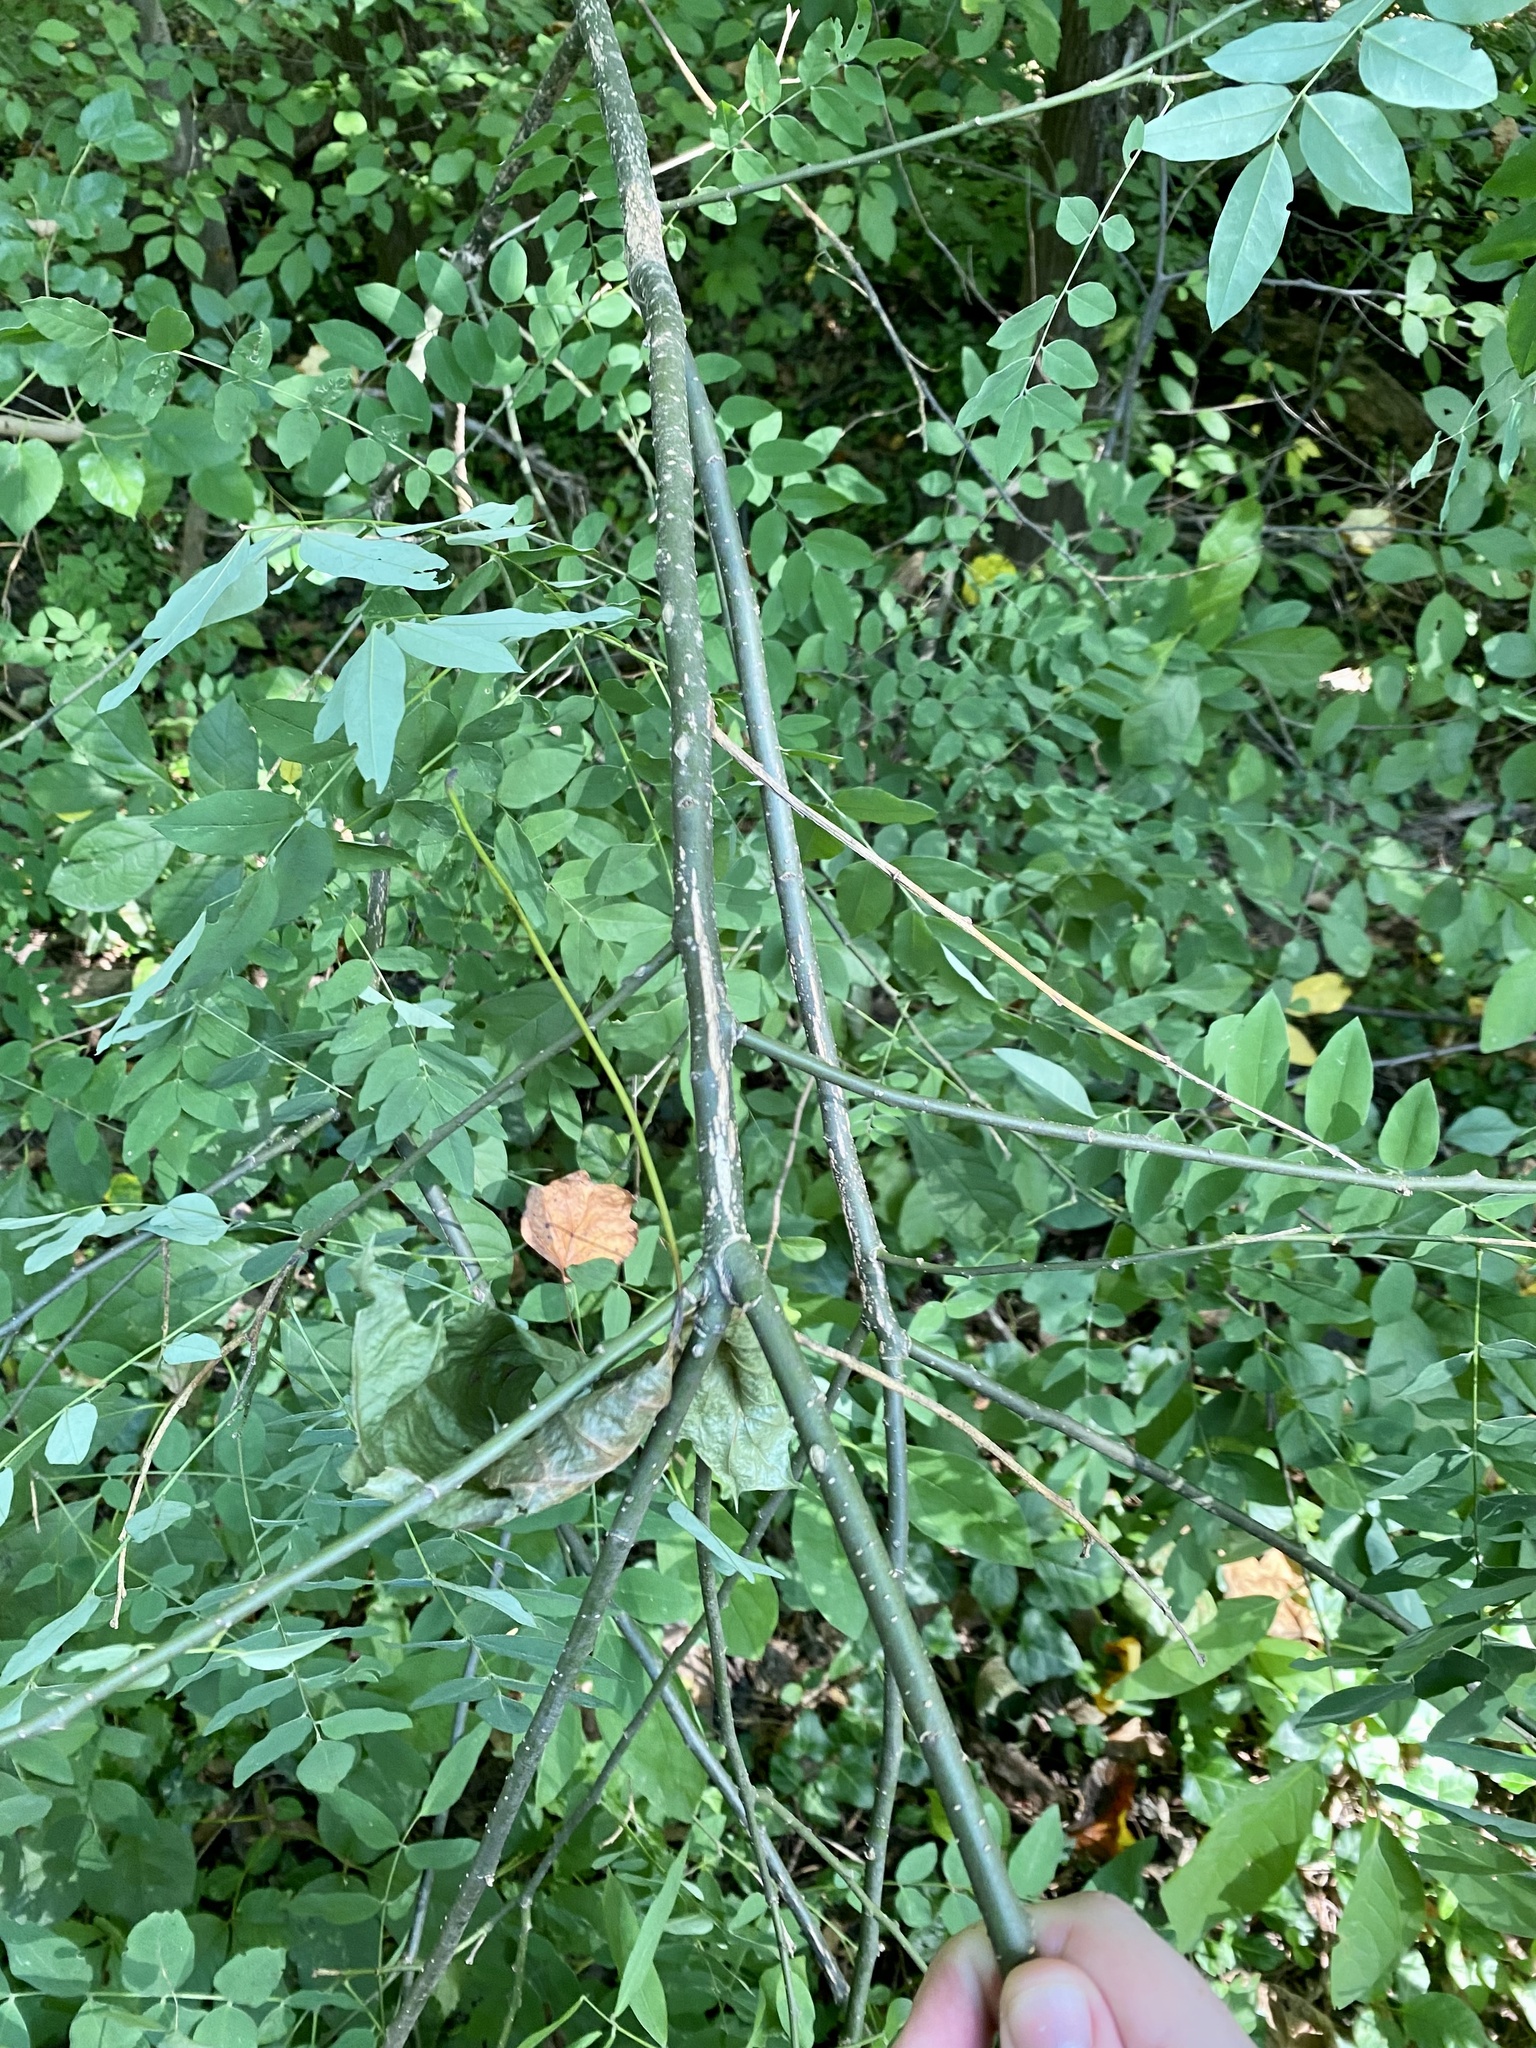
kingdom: Plantae
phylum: Tracheophyta
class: Magnoliopsida
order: Fabales
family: Fabaceae
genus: Styphnolobium
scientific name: Styphnolobium japonicum
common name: Chinese scholartree
